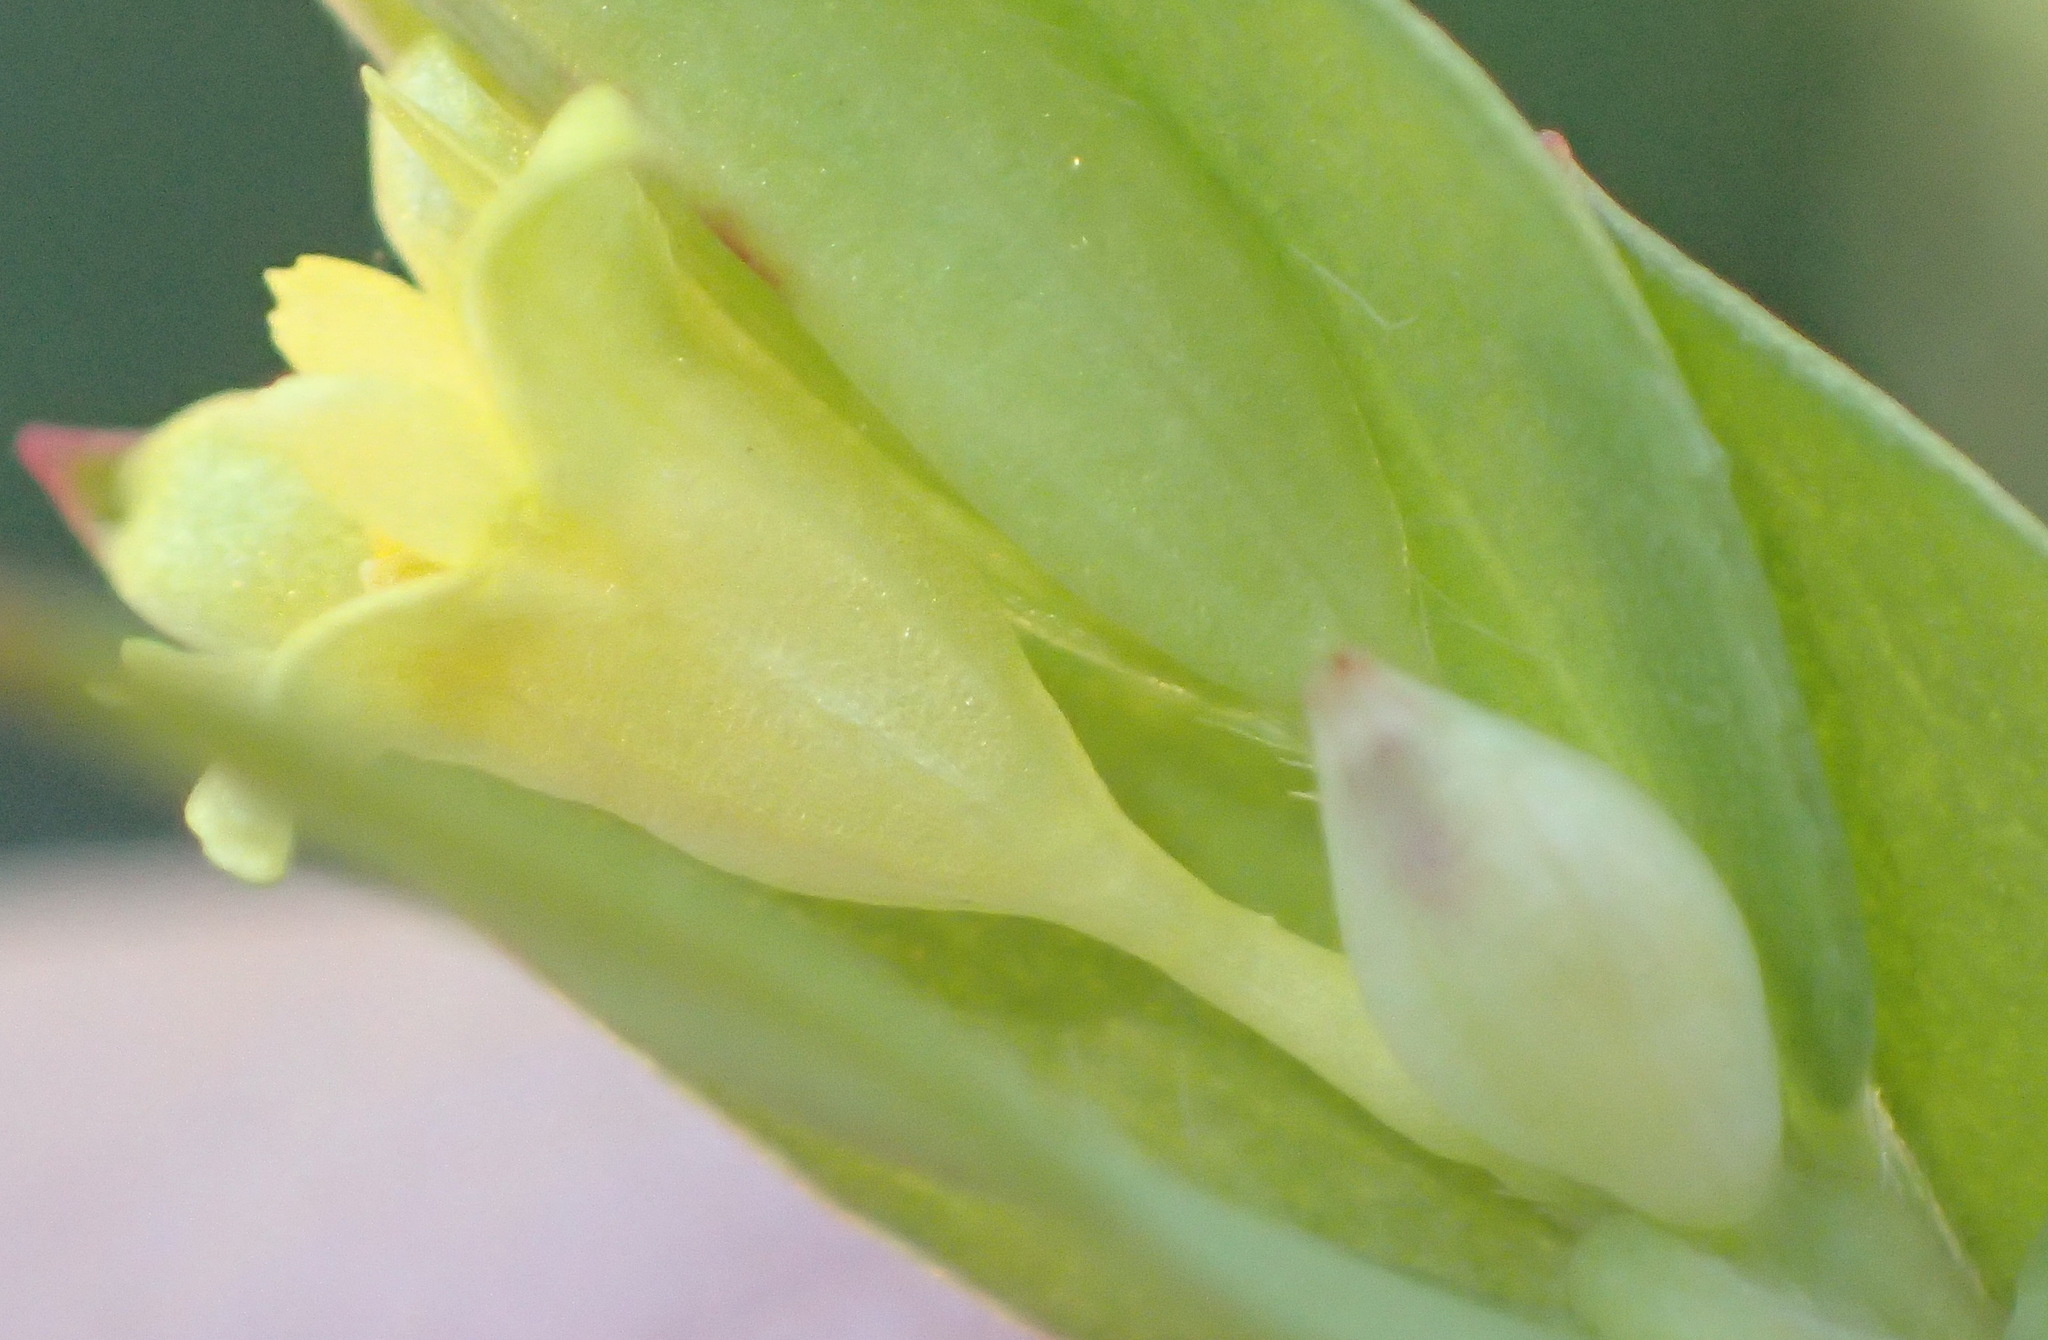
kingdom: Plantae
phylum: Tracheophyta
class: Magnoliopsida
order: Malvales
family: Thymelaeaceae
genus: Gnidia
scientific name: Gnidia juniperifolia
